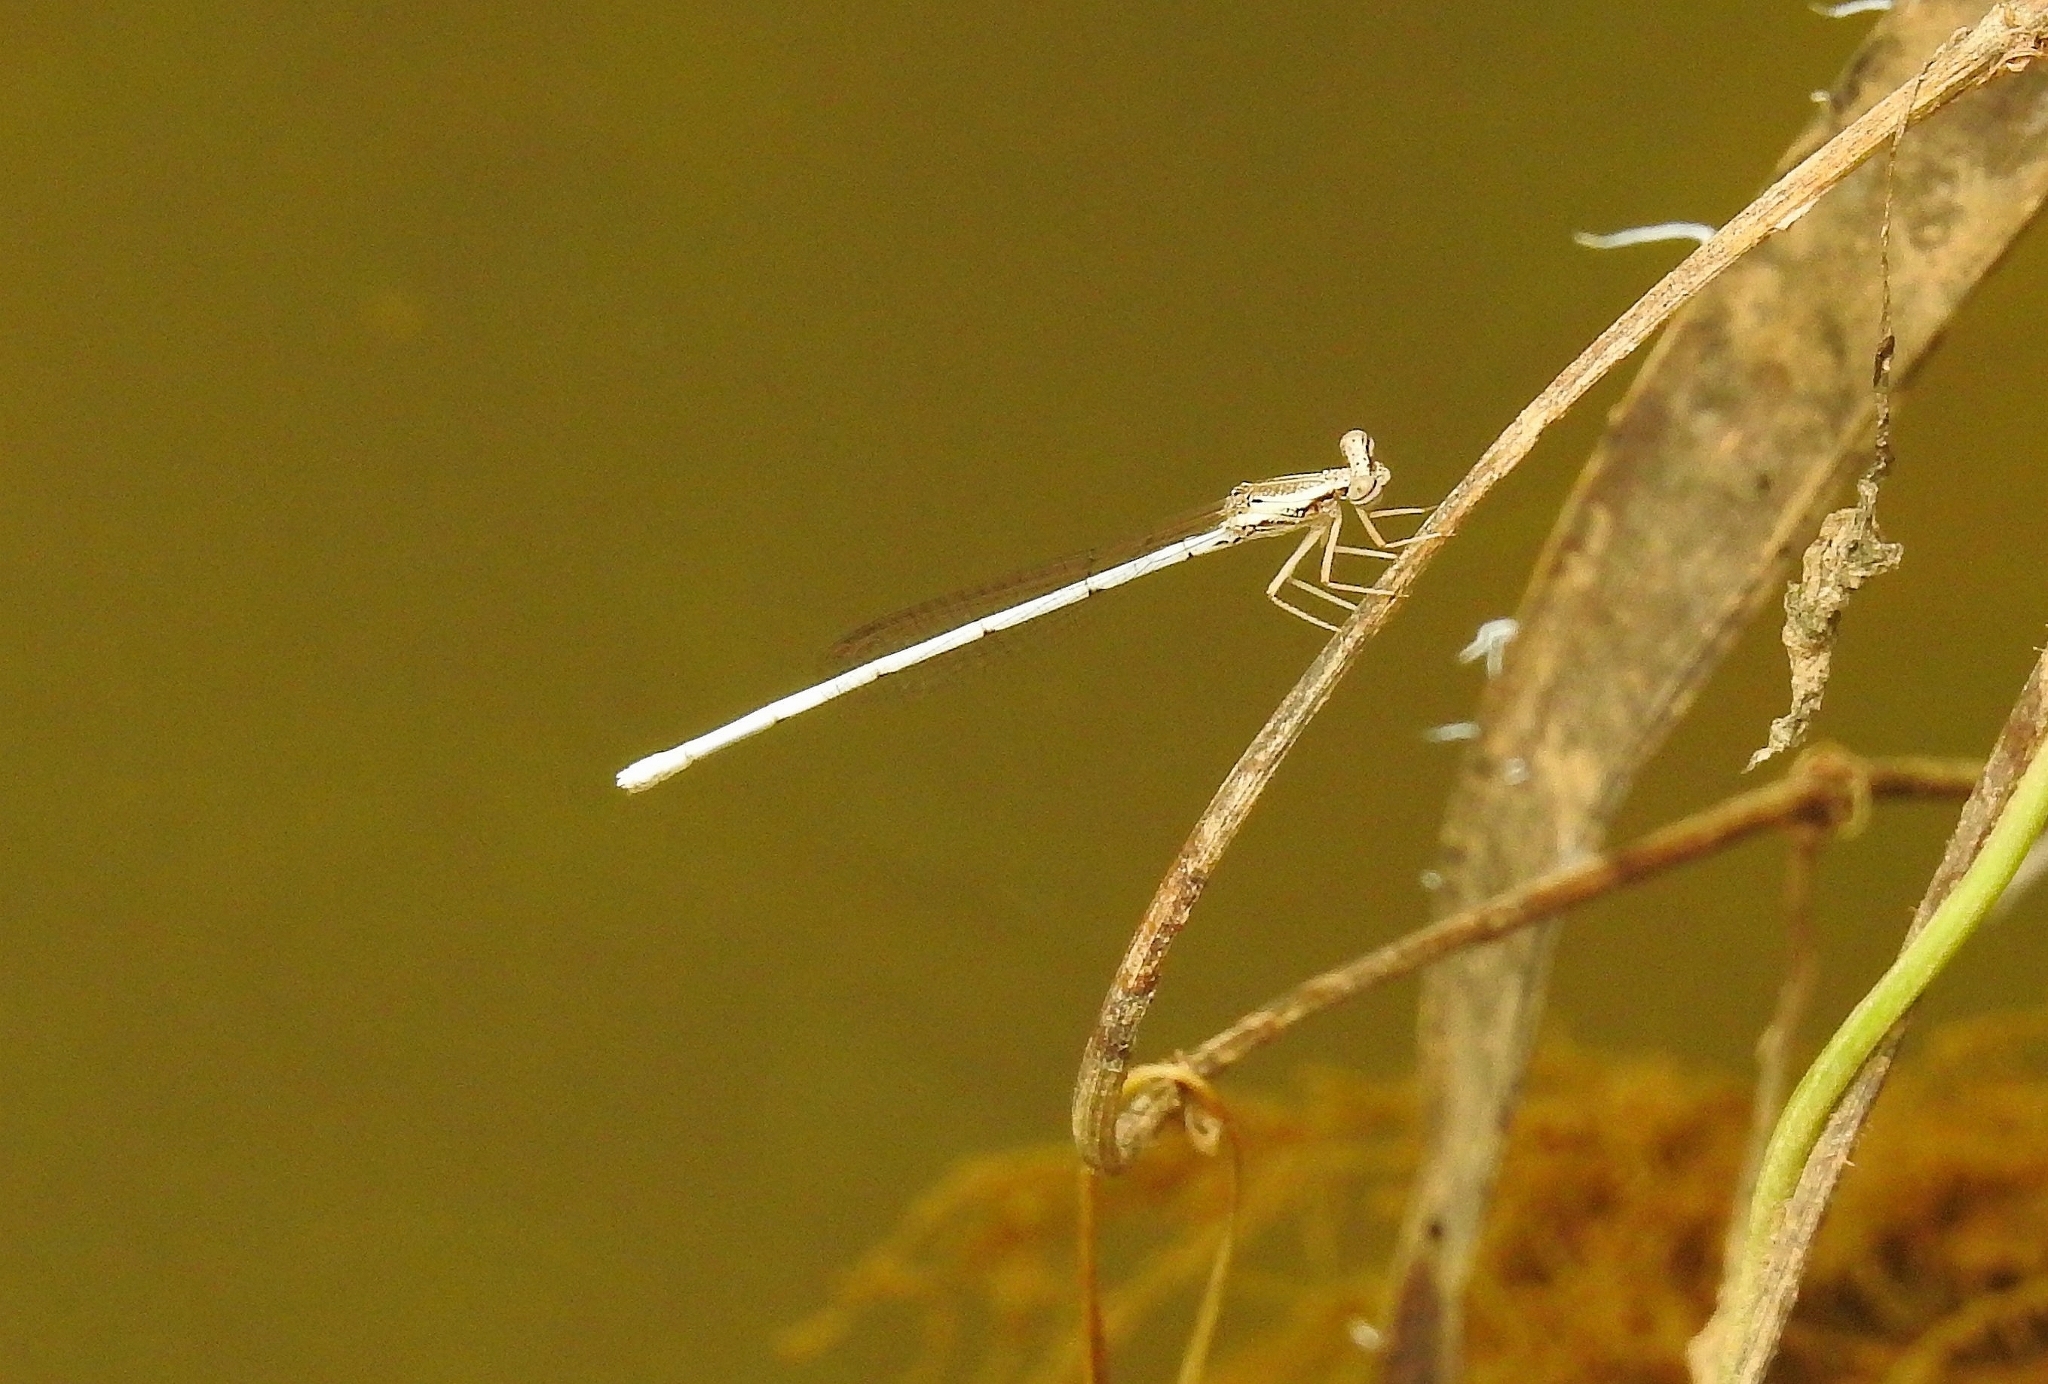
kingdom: Animalia
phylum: Arthropoda
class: Insecta
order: Odonata
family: Platycnemididae
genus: Copera
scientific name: Copera marginipes
